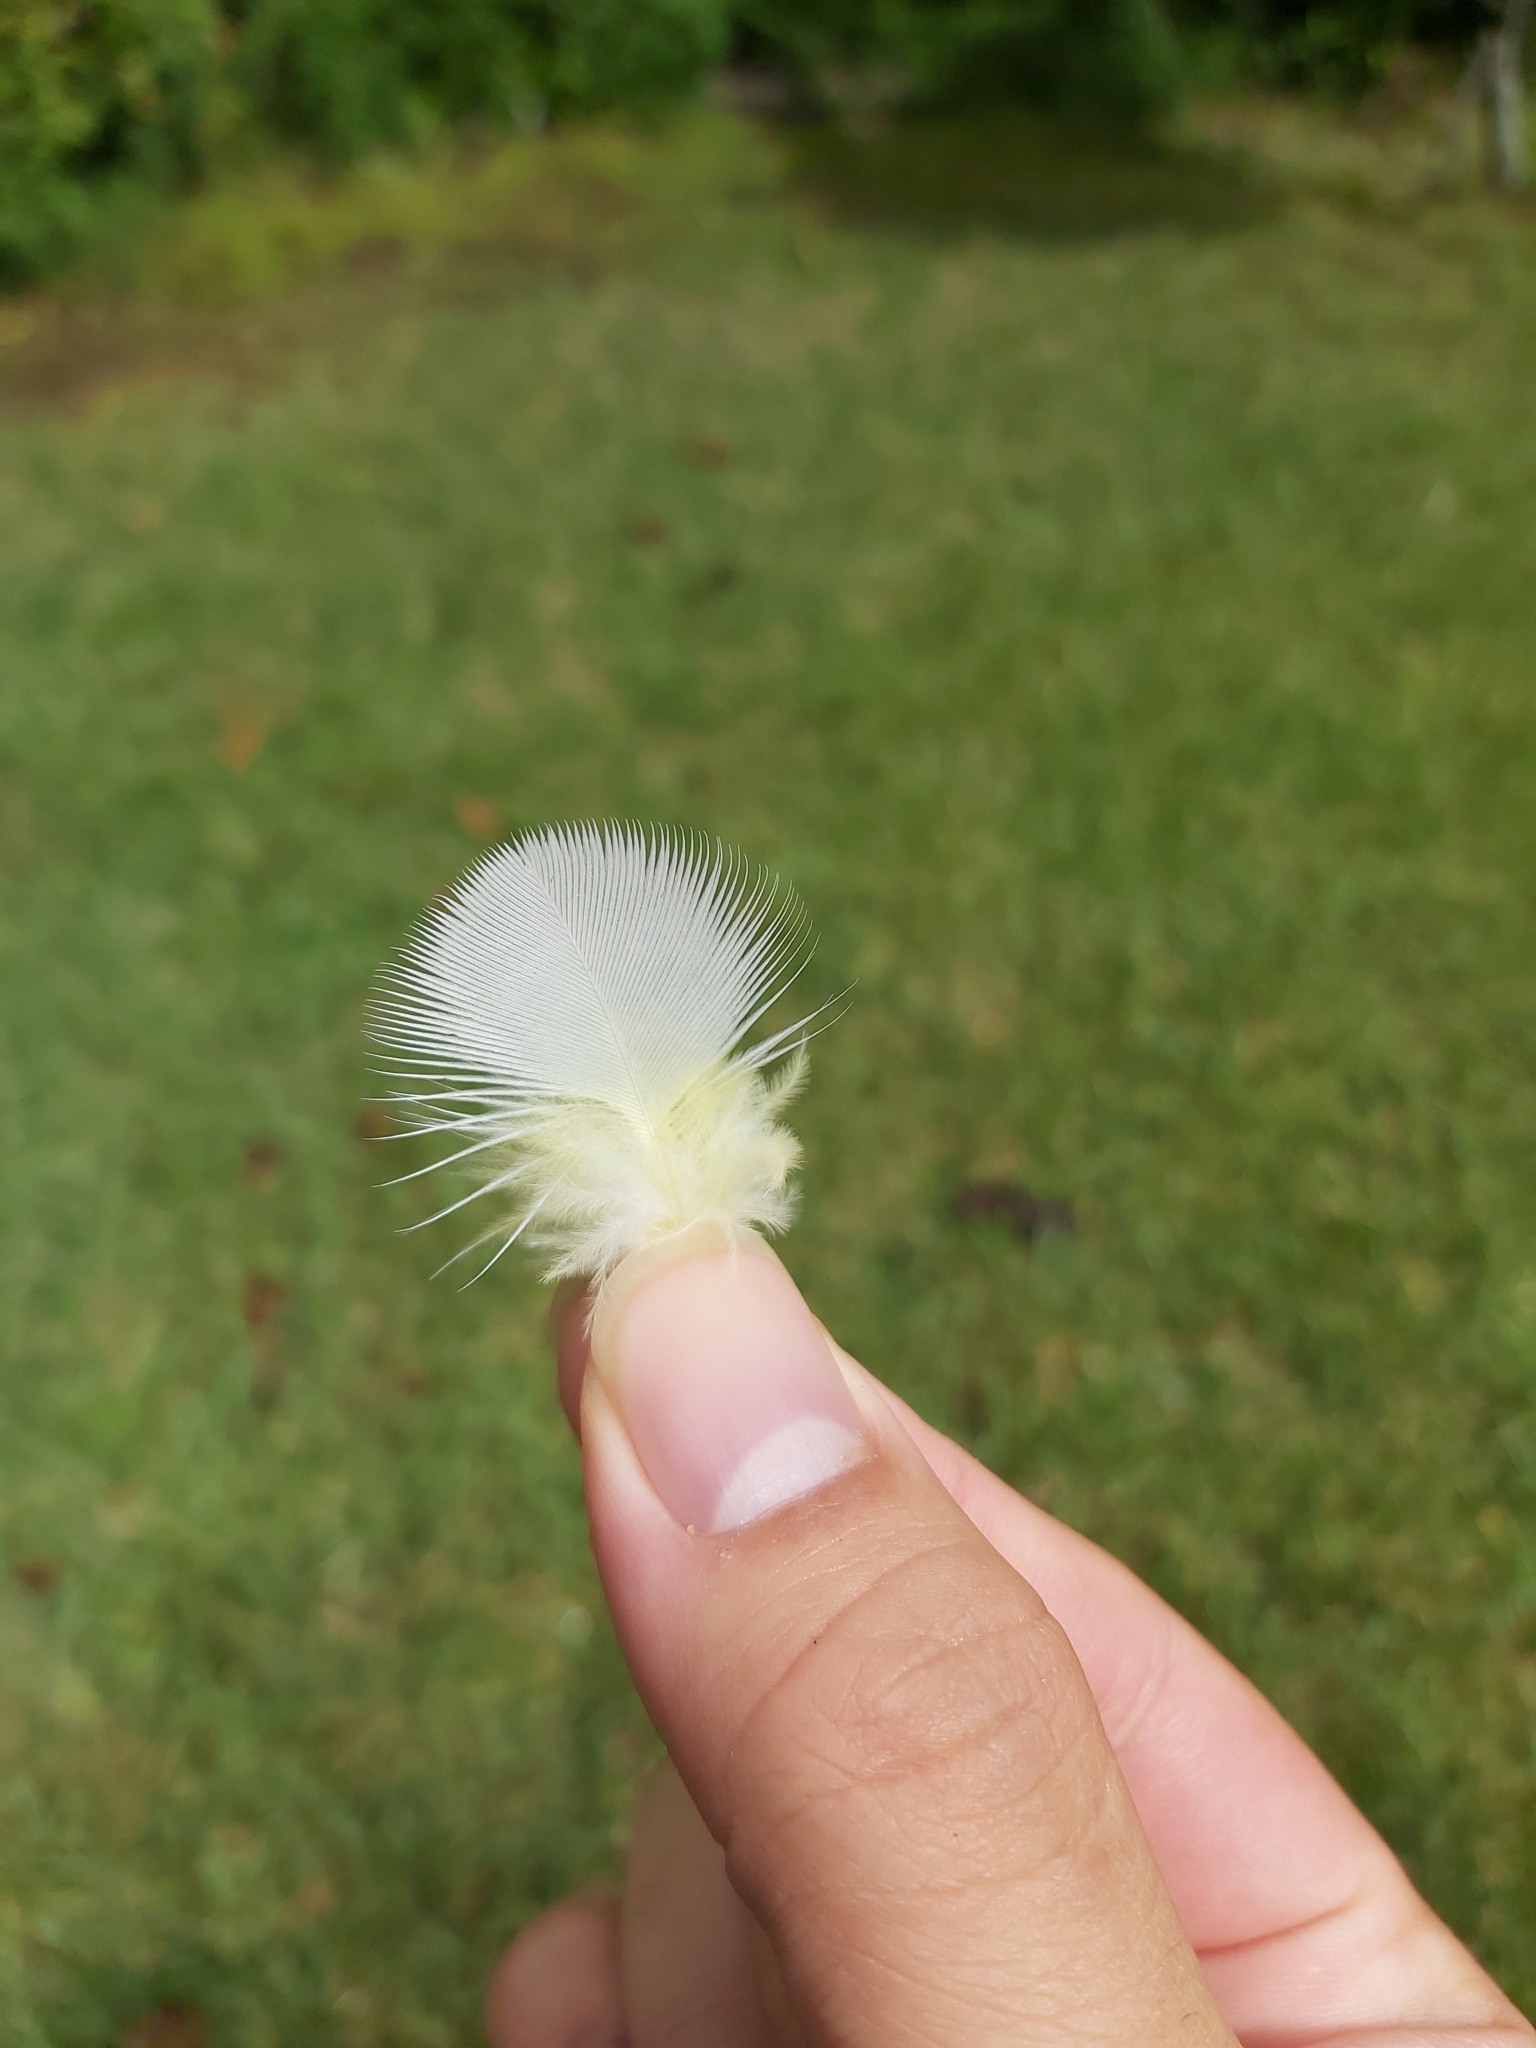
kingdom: Animalia
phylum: Chordata
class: Aves
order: Psittaciformes
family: Psittacidae
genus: Cacatua
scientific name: Cacatua galerita
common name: Sulphur-crested cockatoo
